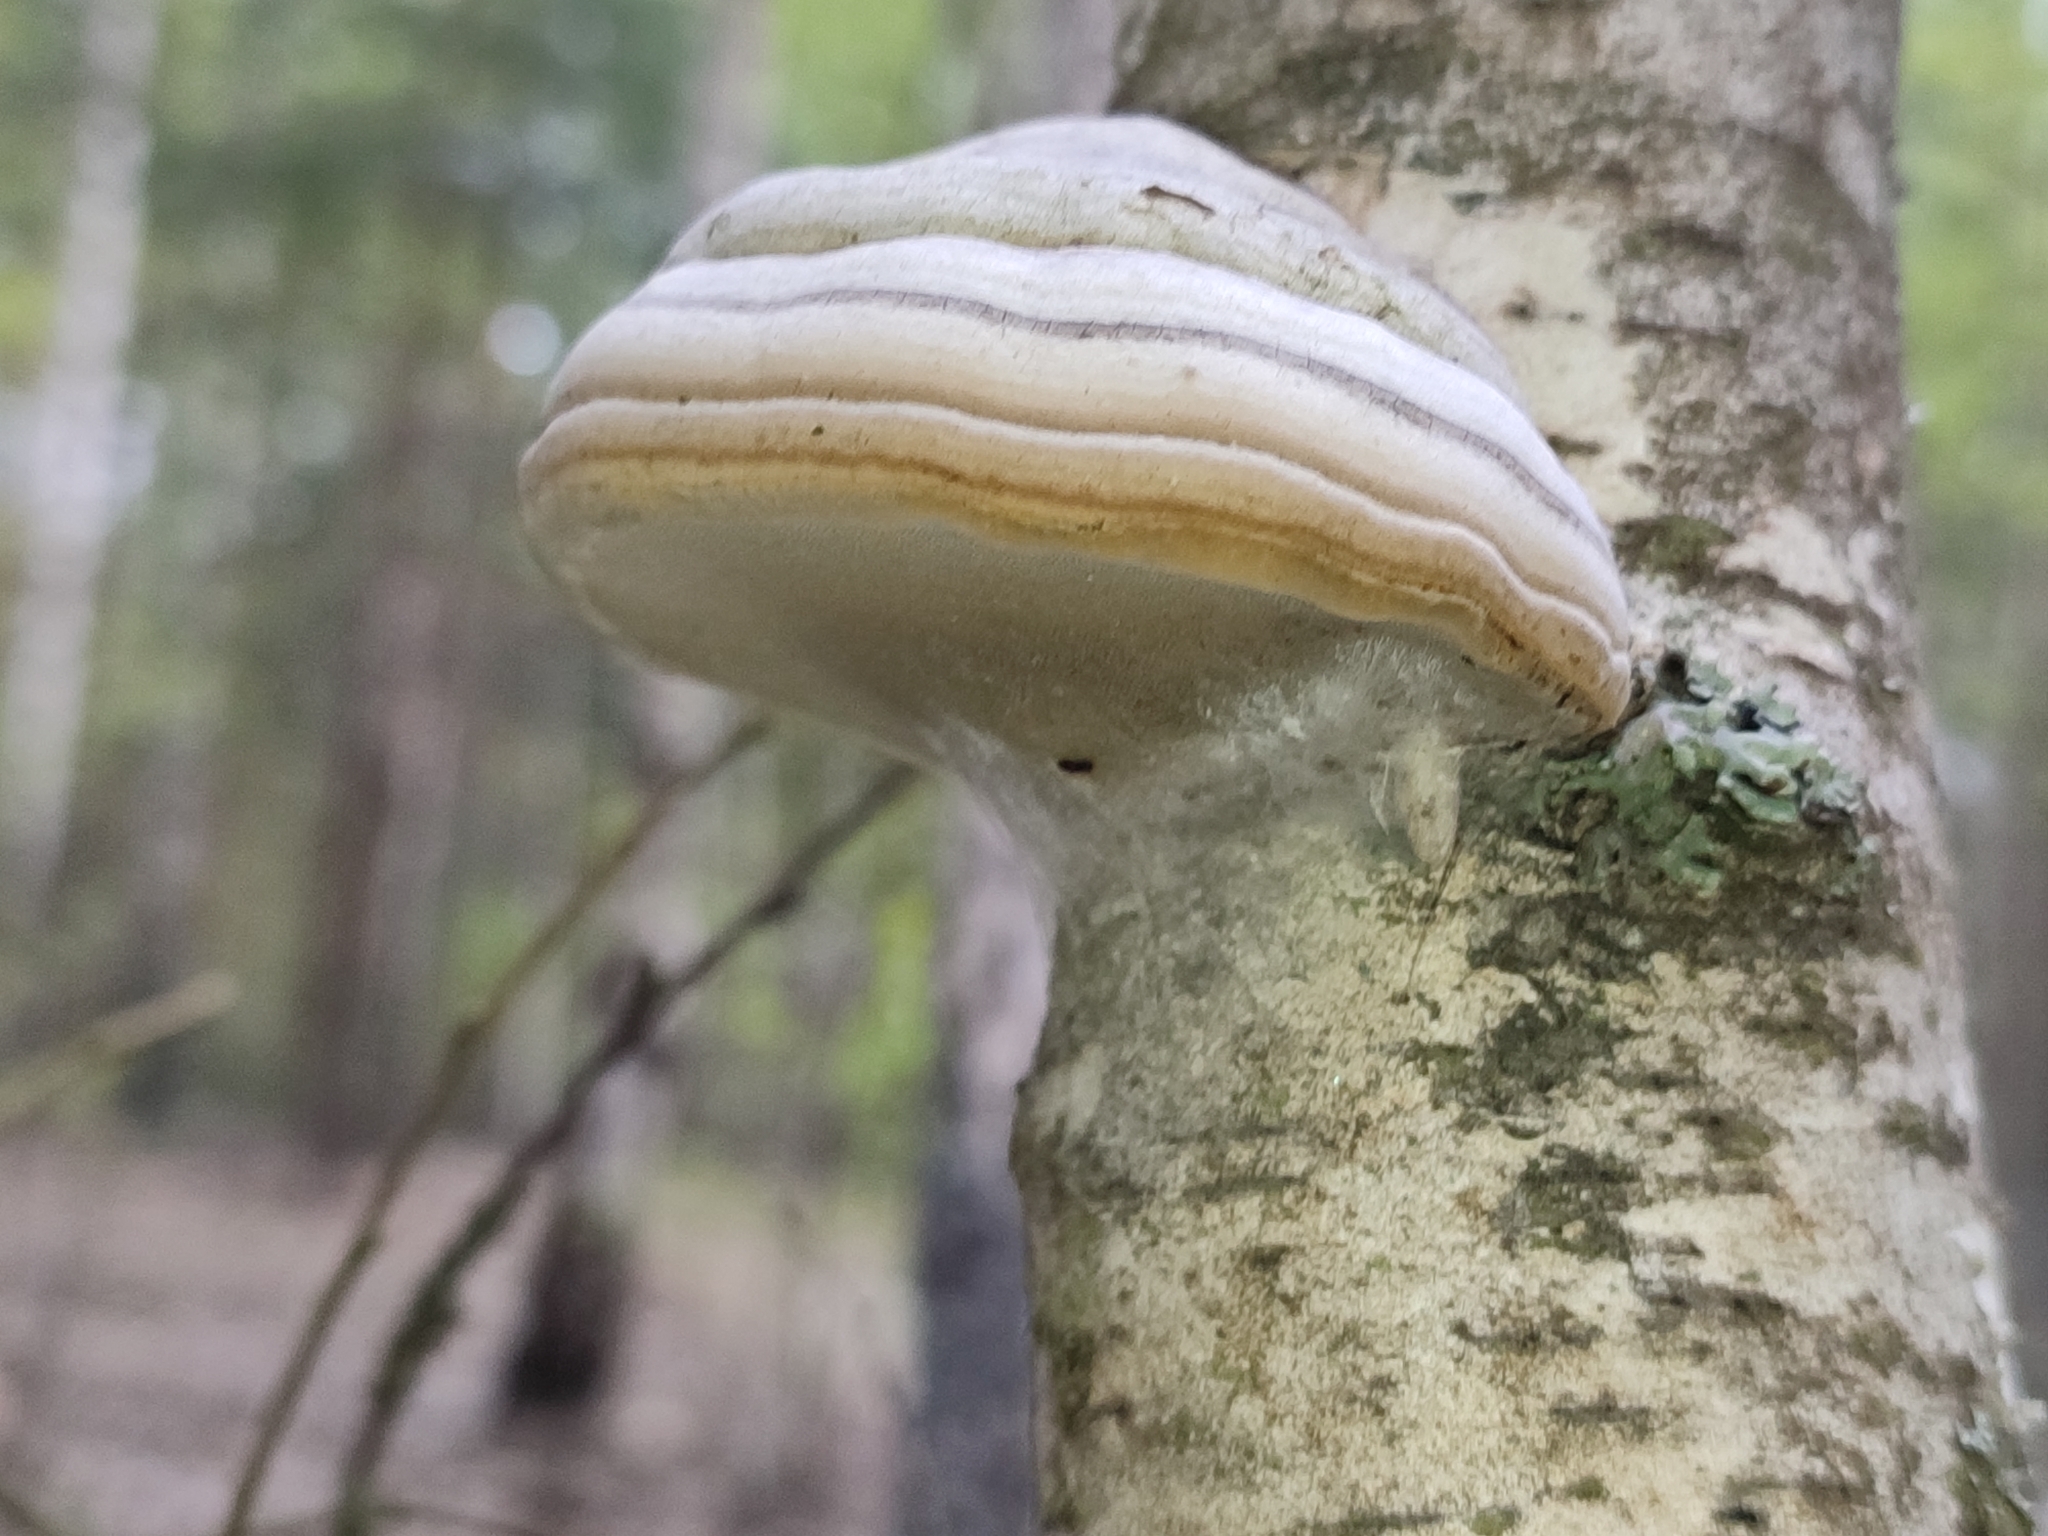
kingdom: Fungi
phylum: Basidiomycota
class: Agaricomycetes
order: Polyporales
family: Polyporaceae
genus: Fomes
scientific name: Fomes fomentarius
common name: Hoof fungus
